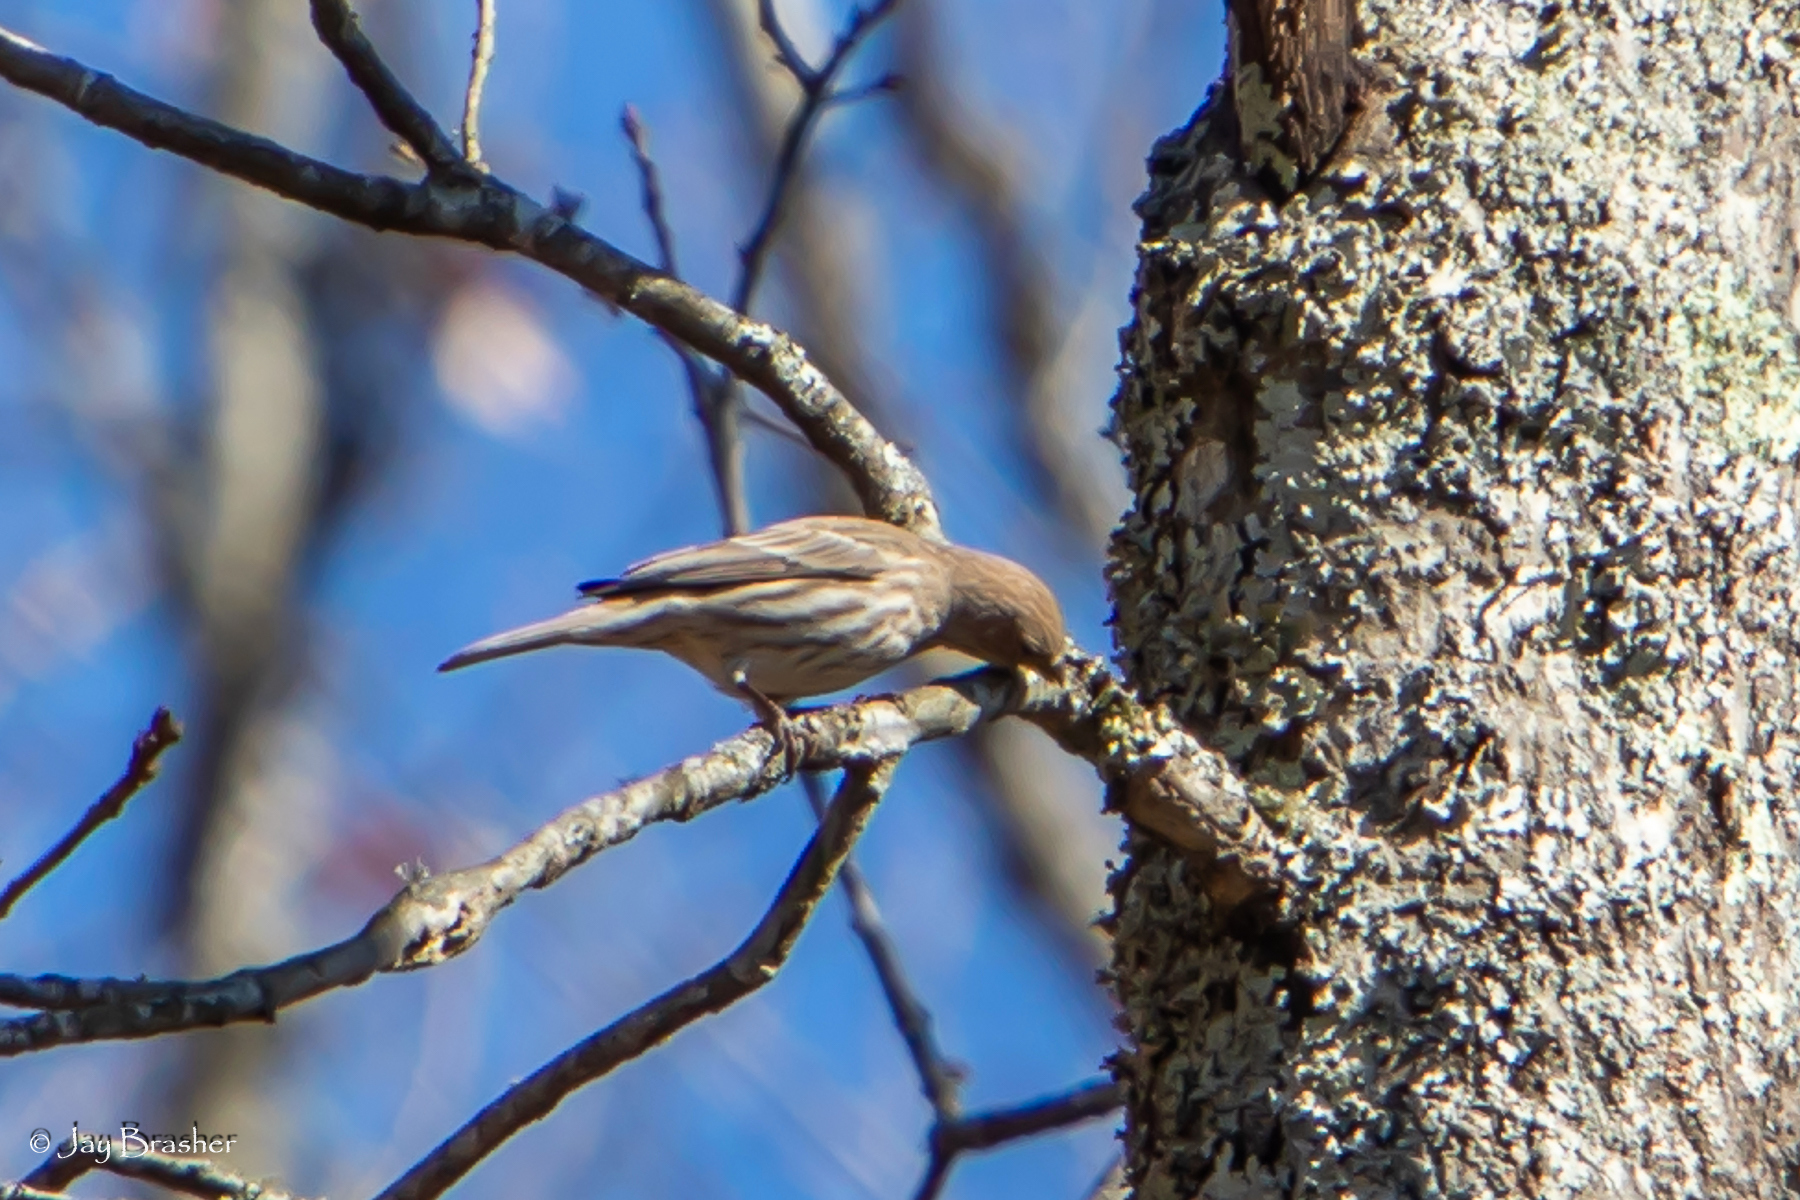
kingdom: Animalia
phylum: Chordata
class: Aves
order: Passeriformes
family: Fringillidae
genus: Haemorhous
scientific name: Haemorhous mexicanus
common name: House finch
